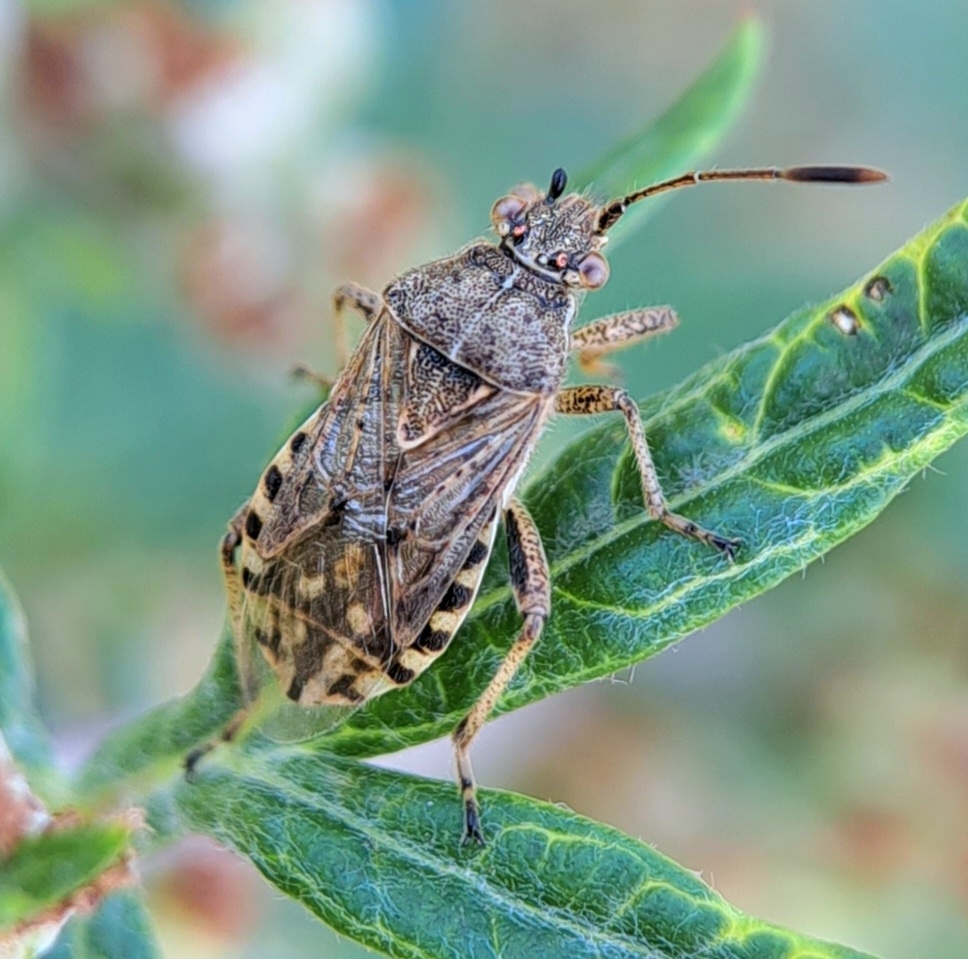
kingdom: Animalia
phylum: Arthropoda
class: Insecta
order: Hemiptera
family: Rhopalidae
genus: Stictopleurus
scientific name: Stictopleurus punctatonervosus
